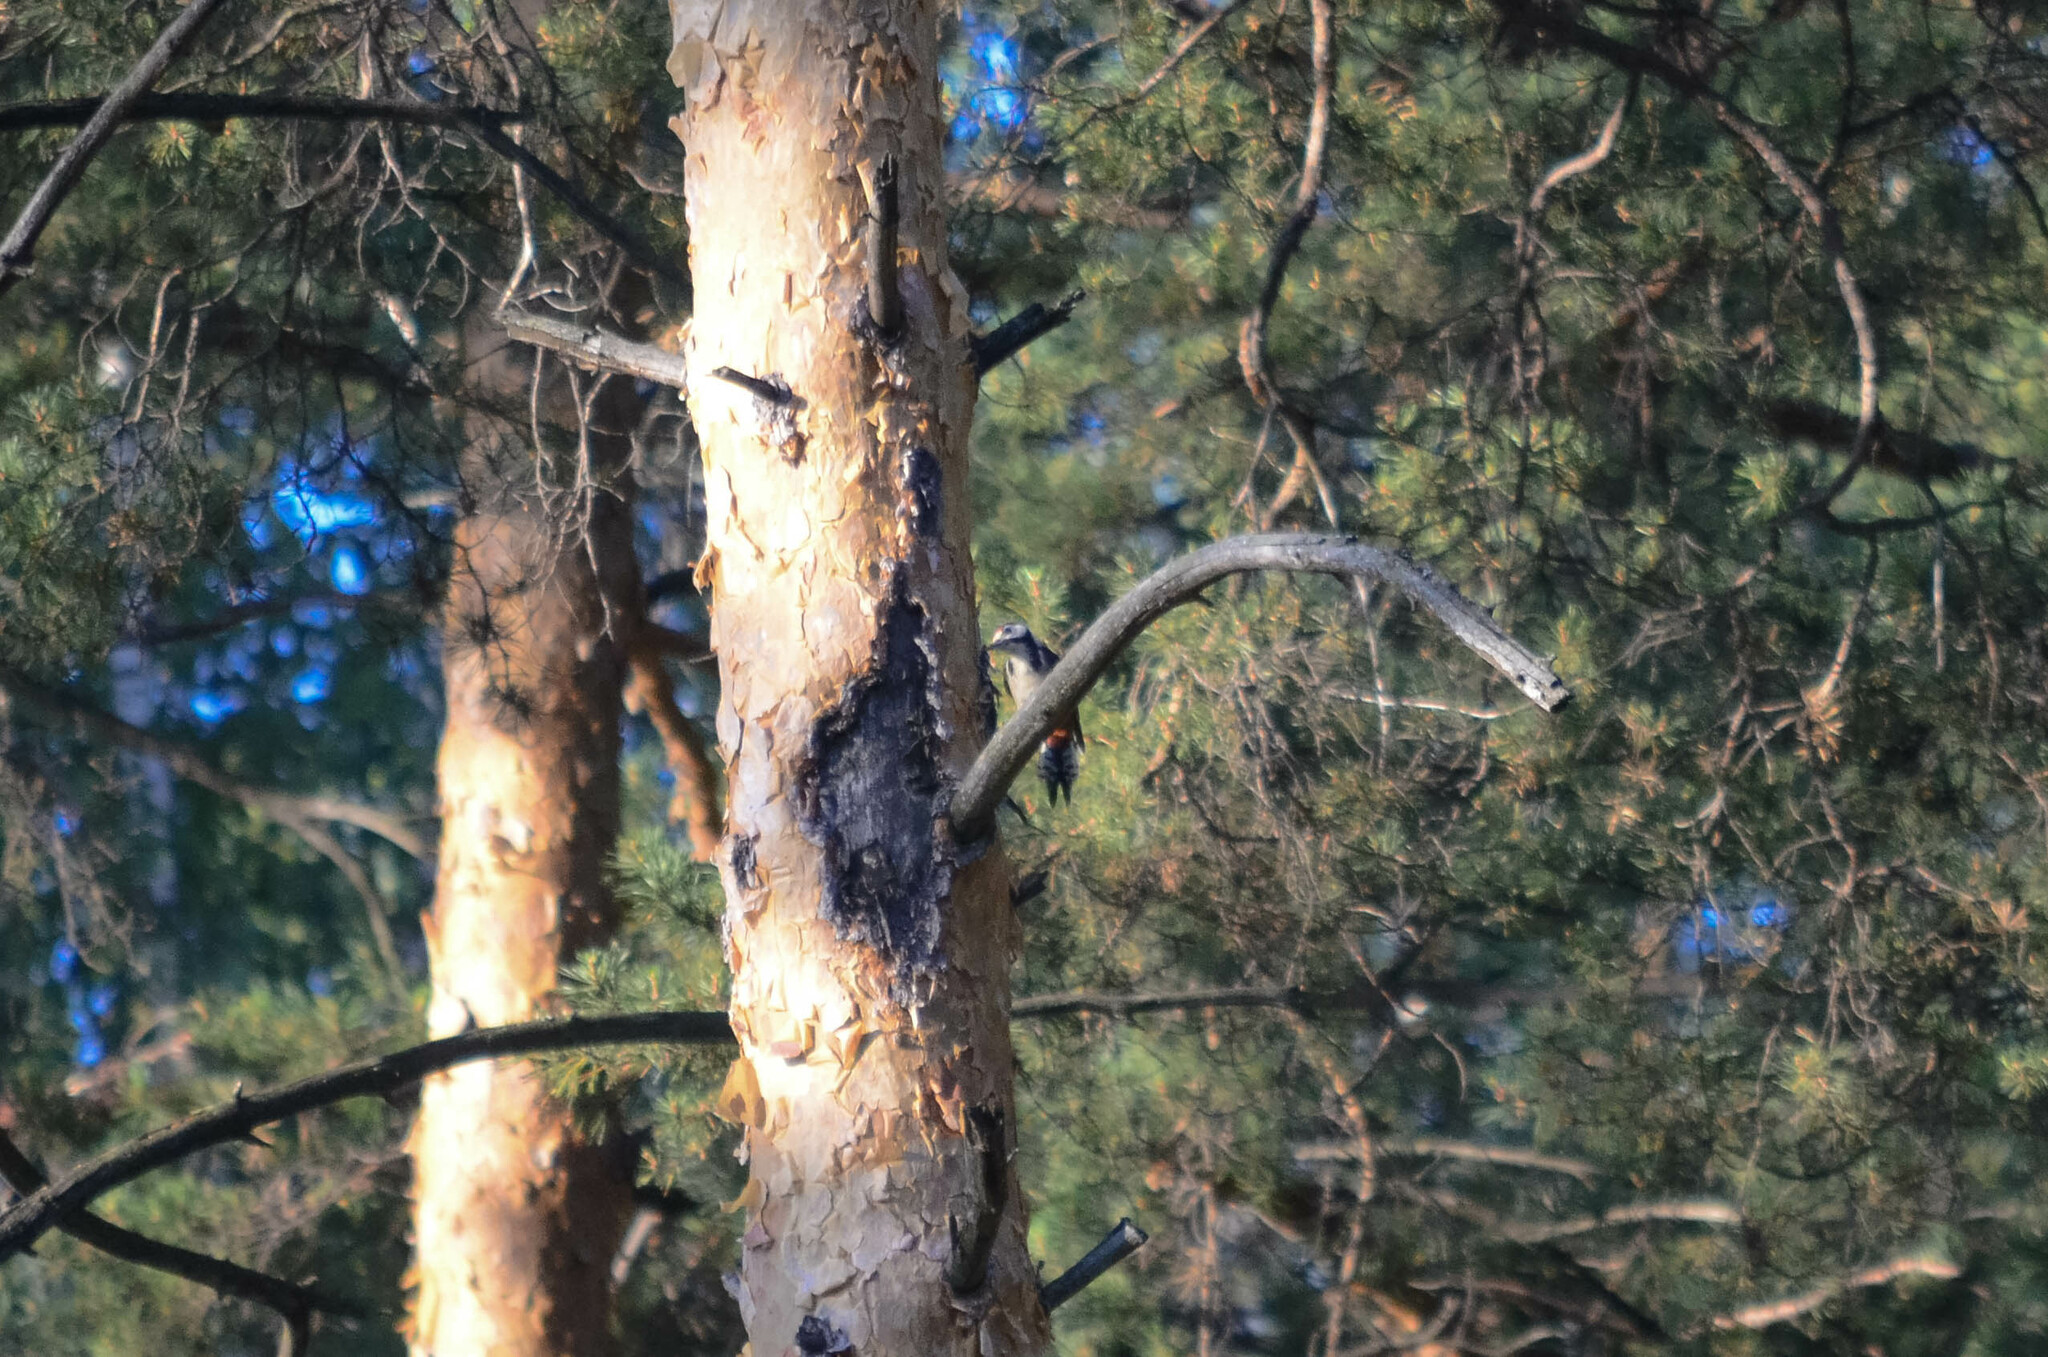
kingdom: Animalia
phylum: Chordata
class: Aves
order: Piciformes
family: Picidae
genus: Dendrocopos
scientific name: Dendrocopos major
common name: Great spotted woodpecker
